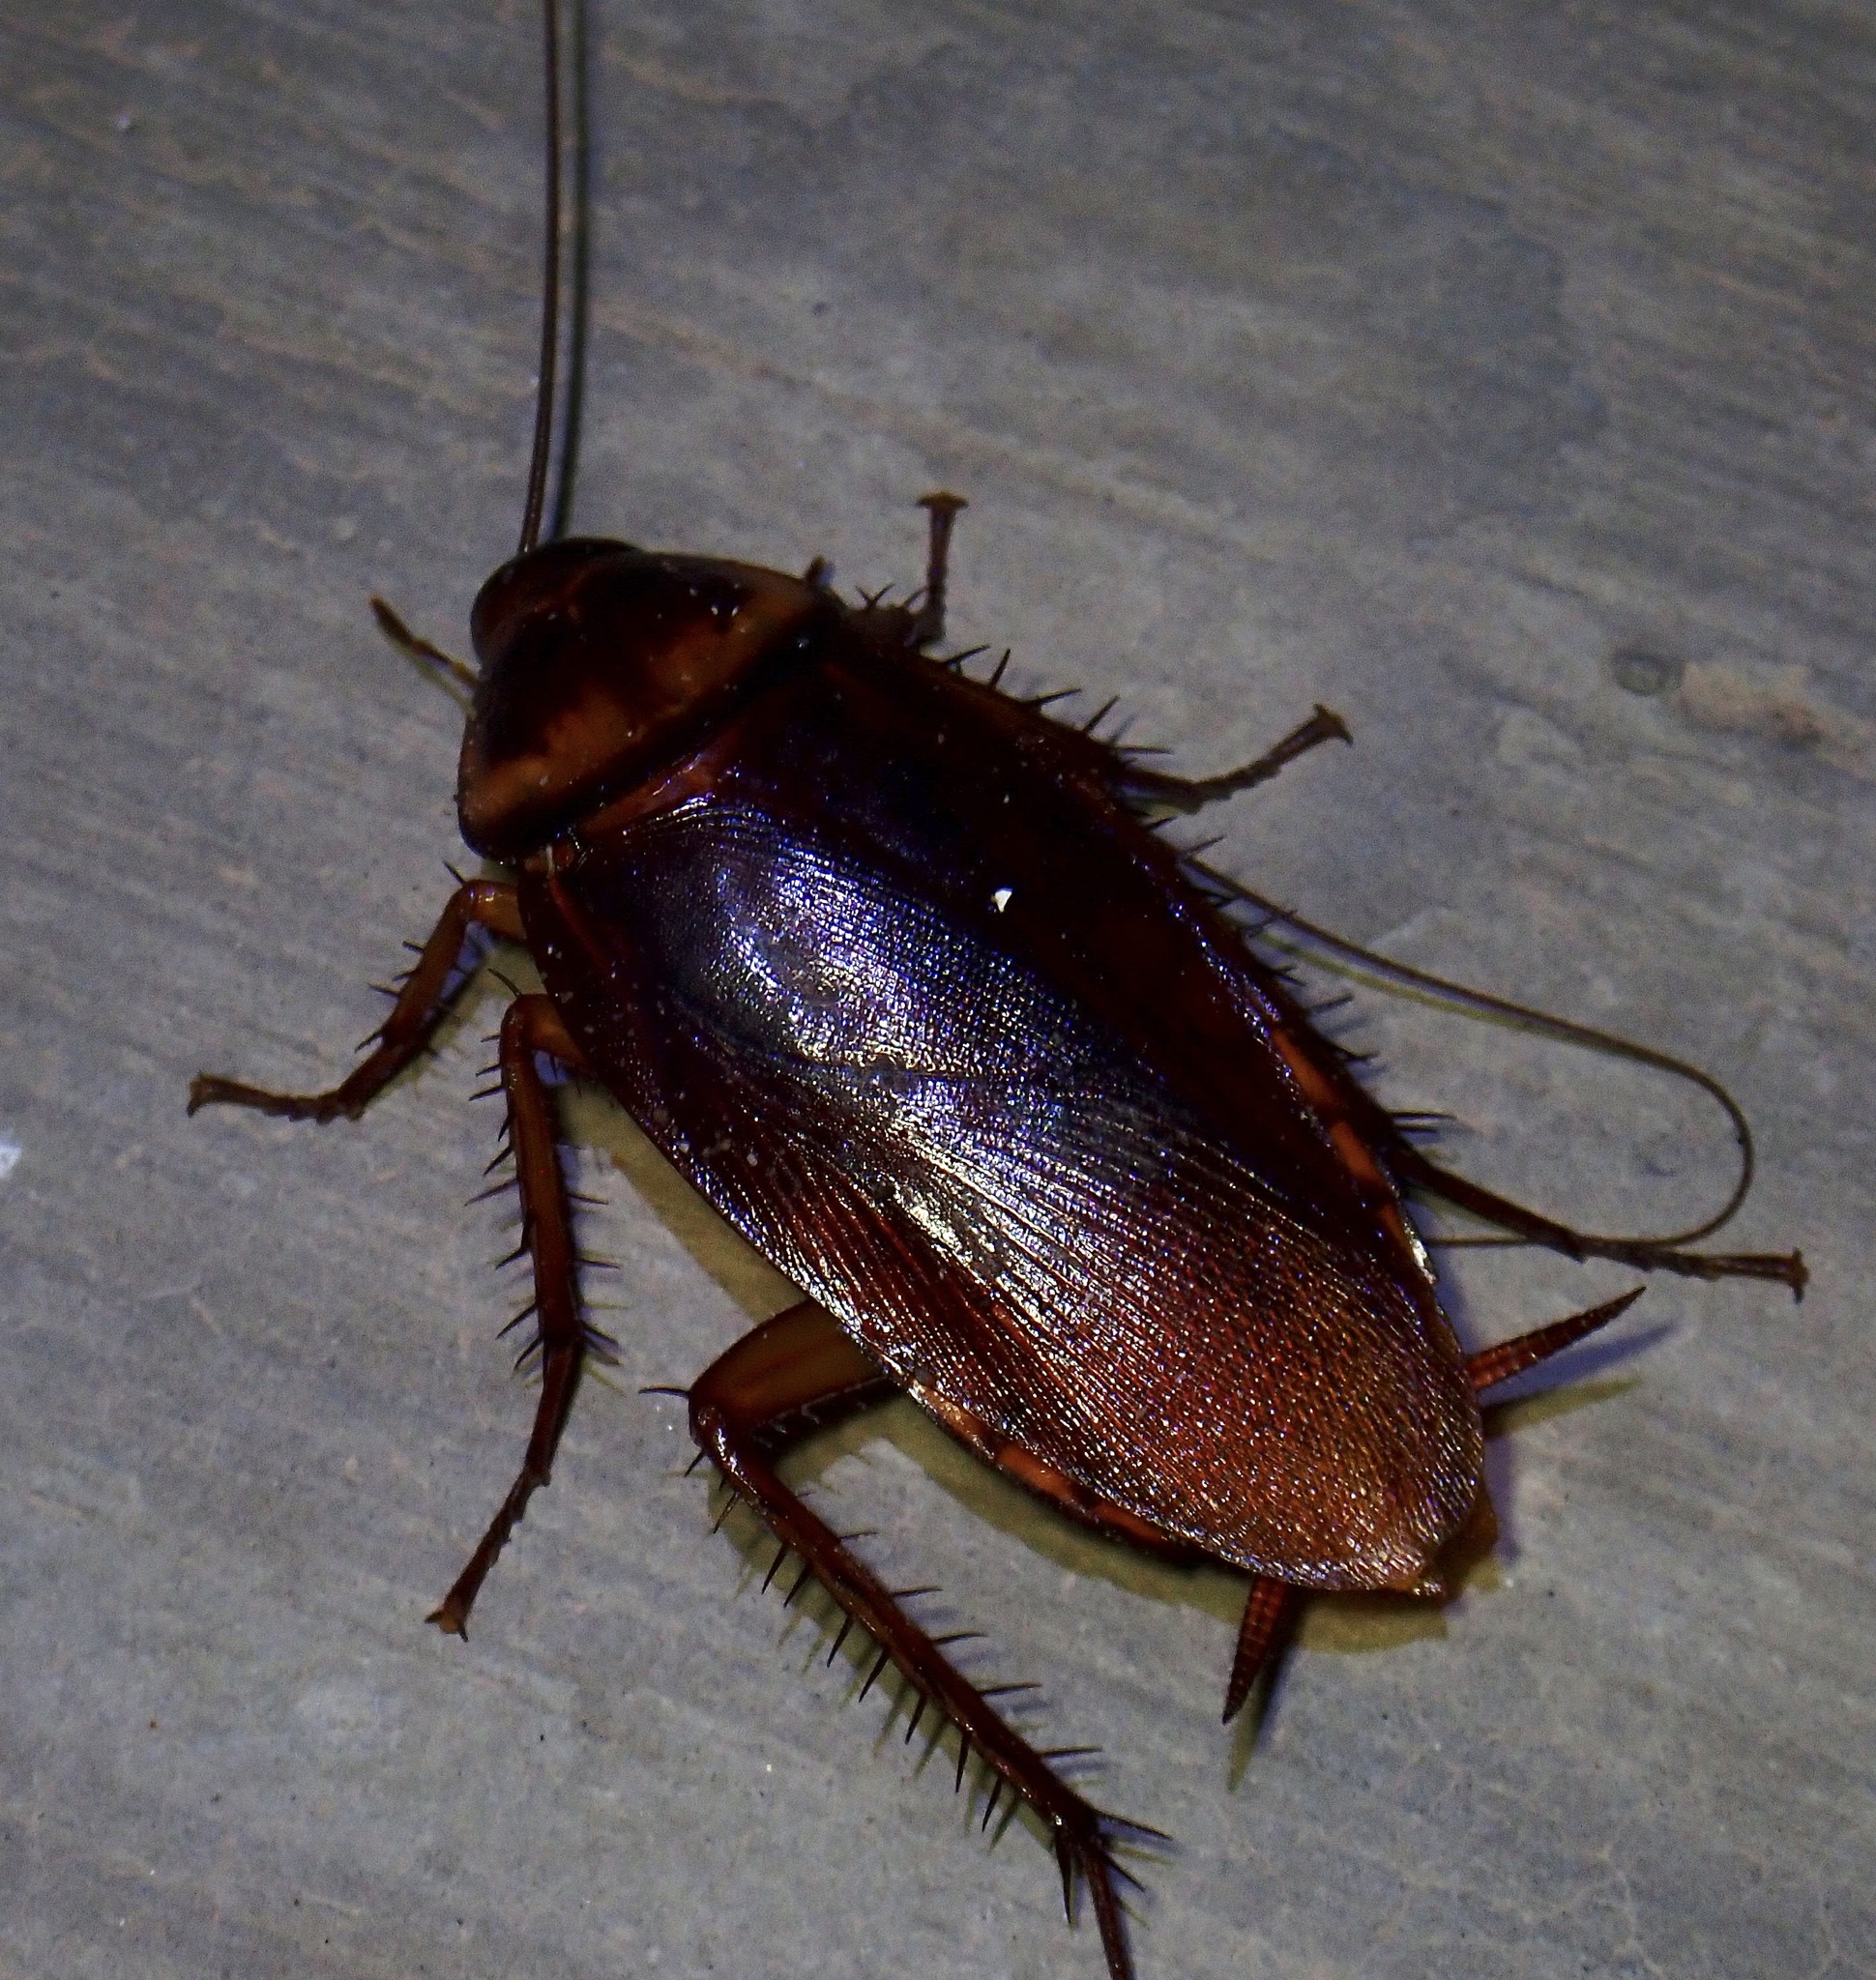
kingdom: Animalia
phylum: Arthropoda
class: Insecta
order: Blattodea
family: Blattidae
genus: Periplaneta
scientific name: Periplaneta americana
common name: American cockroach
